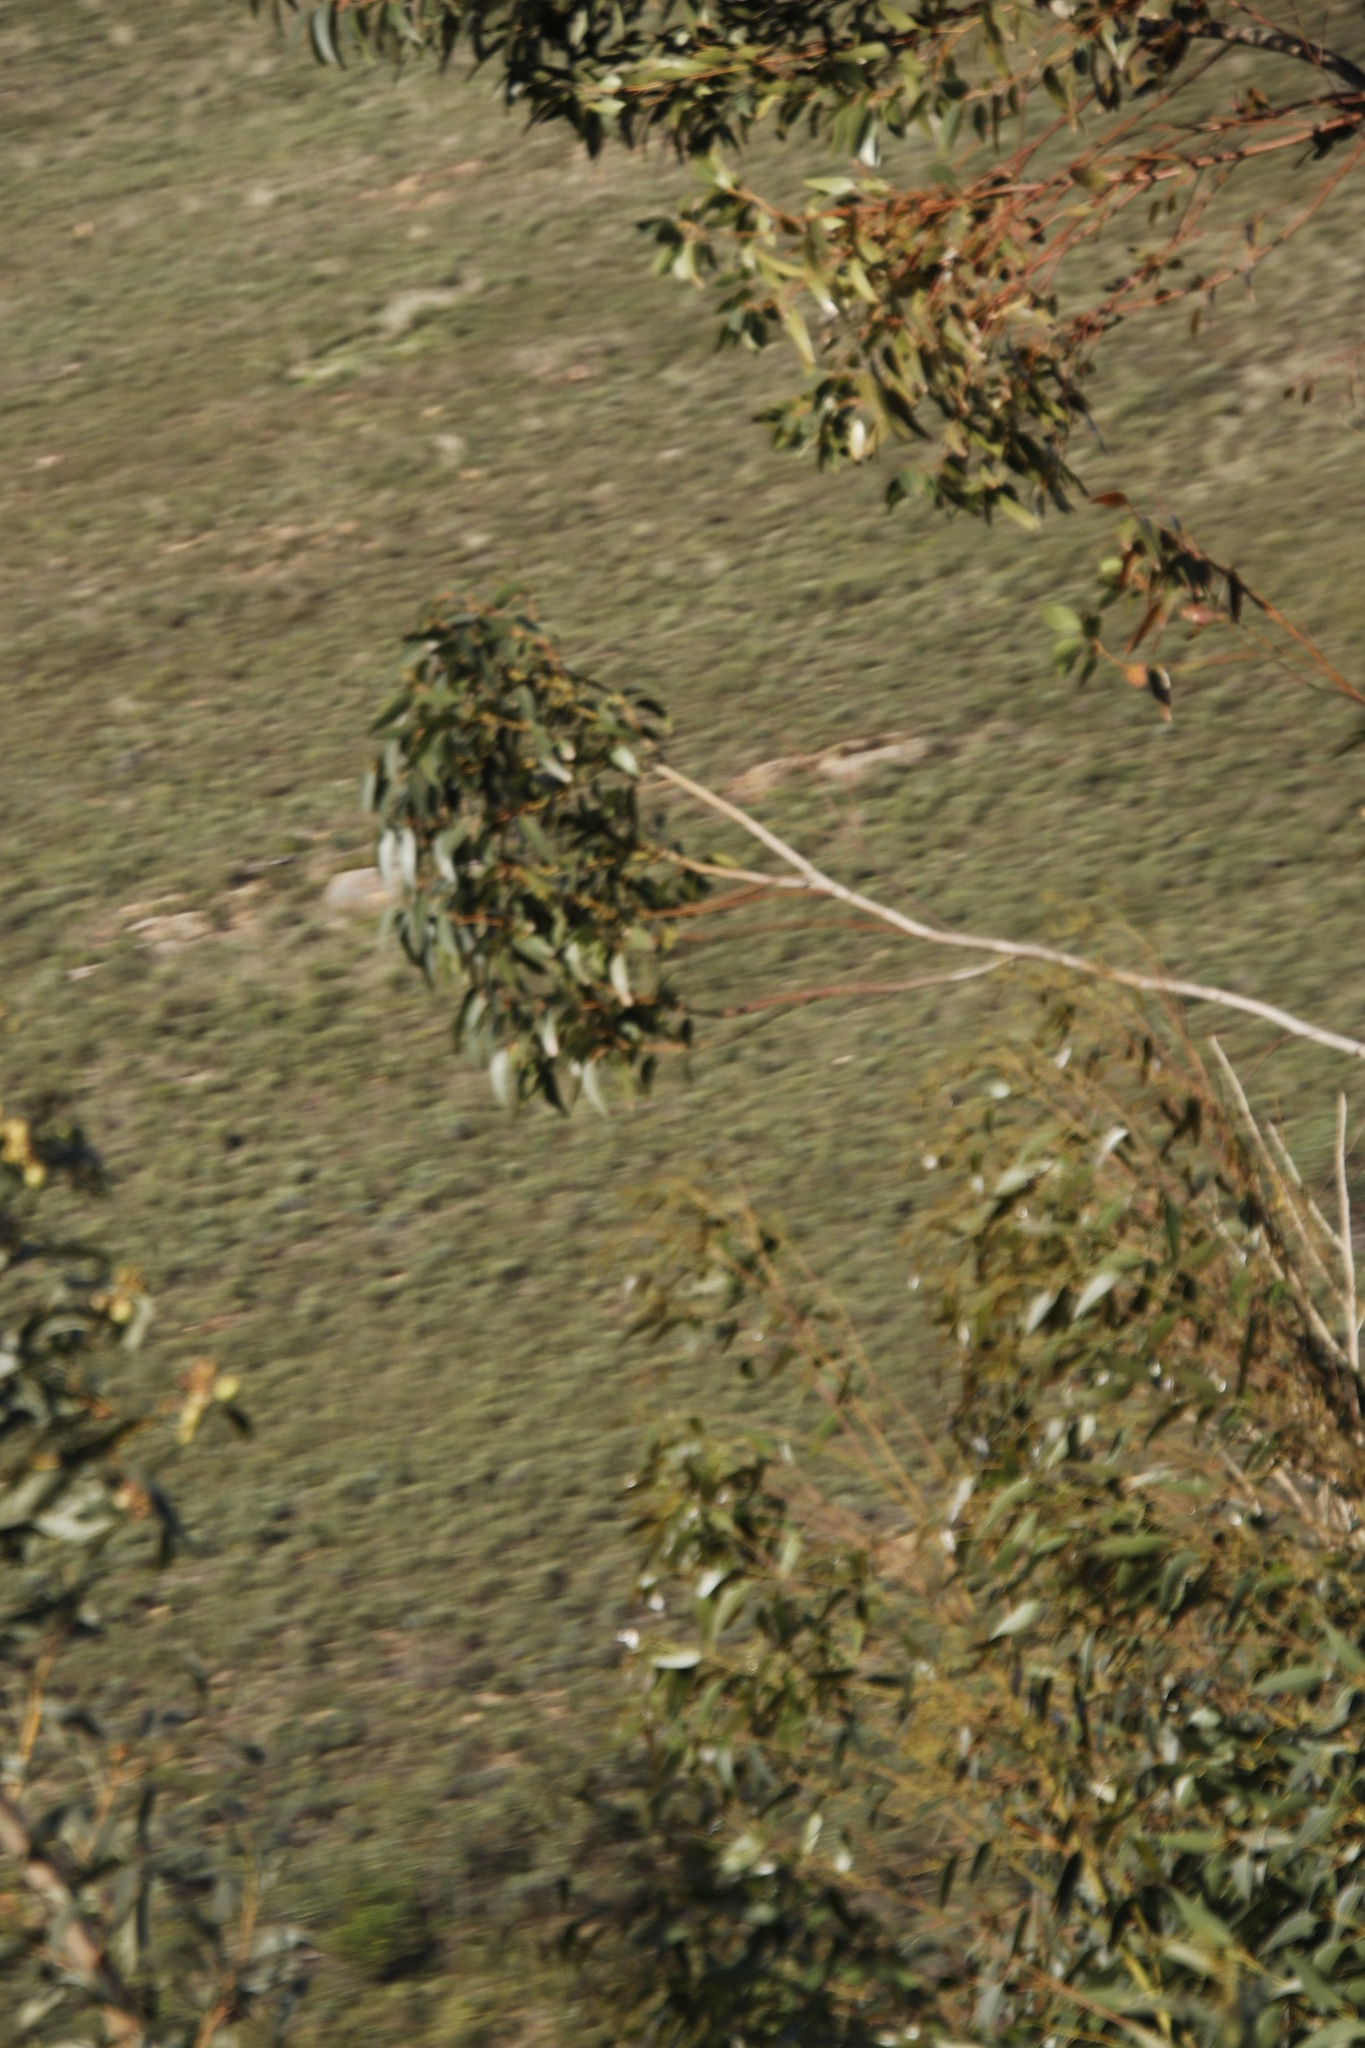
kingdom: Plantae
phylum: Tracheophyta
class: Magnoliopsida
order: Myrtales
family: Myrtaceae
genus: Eucalyptus
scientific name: Eucalyptus cladocalyx
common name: Sugargum
